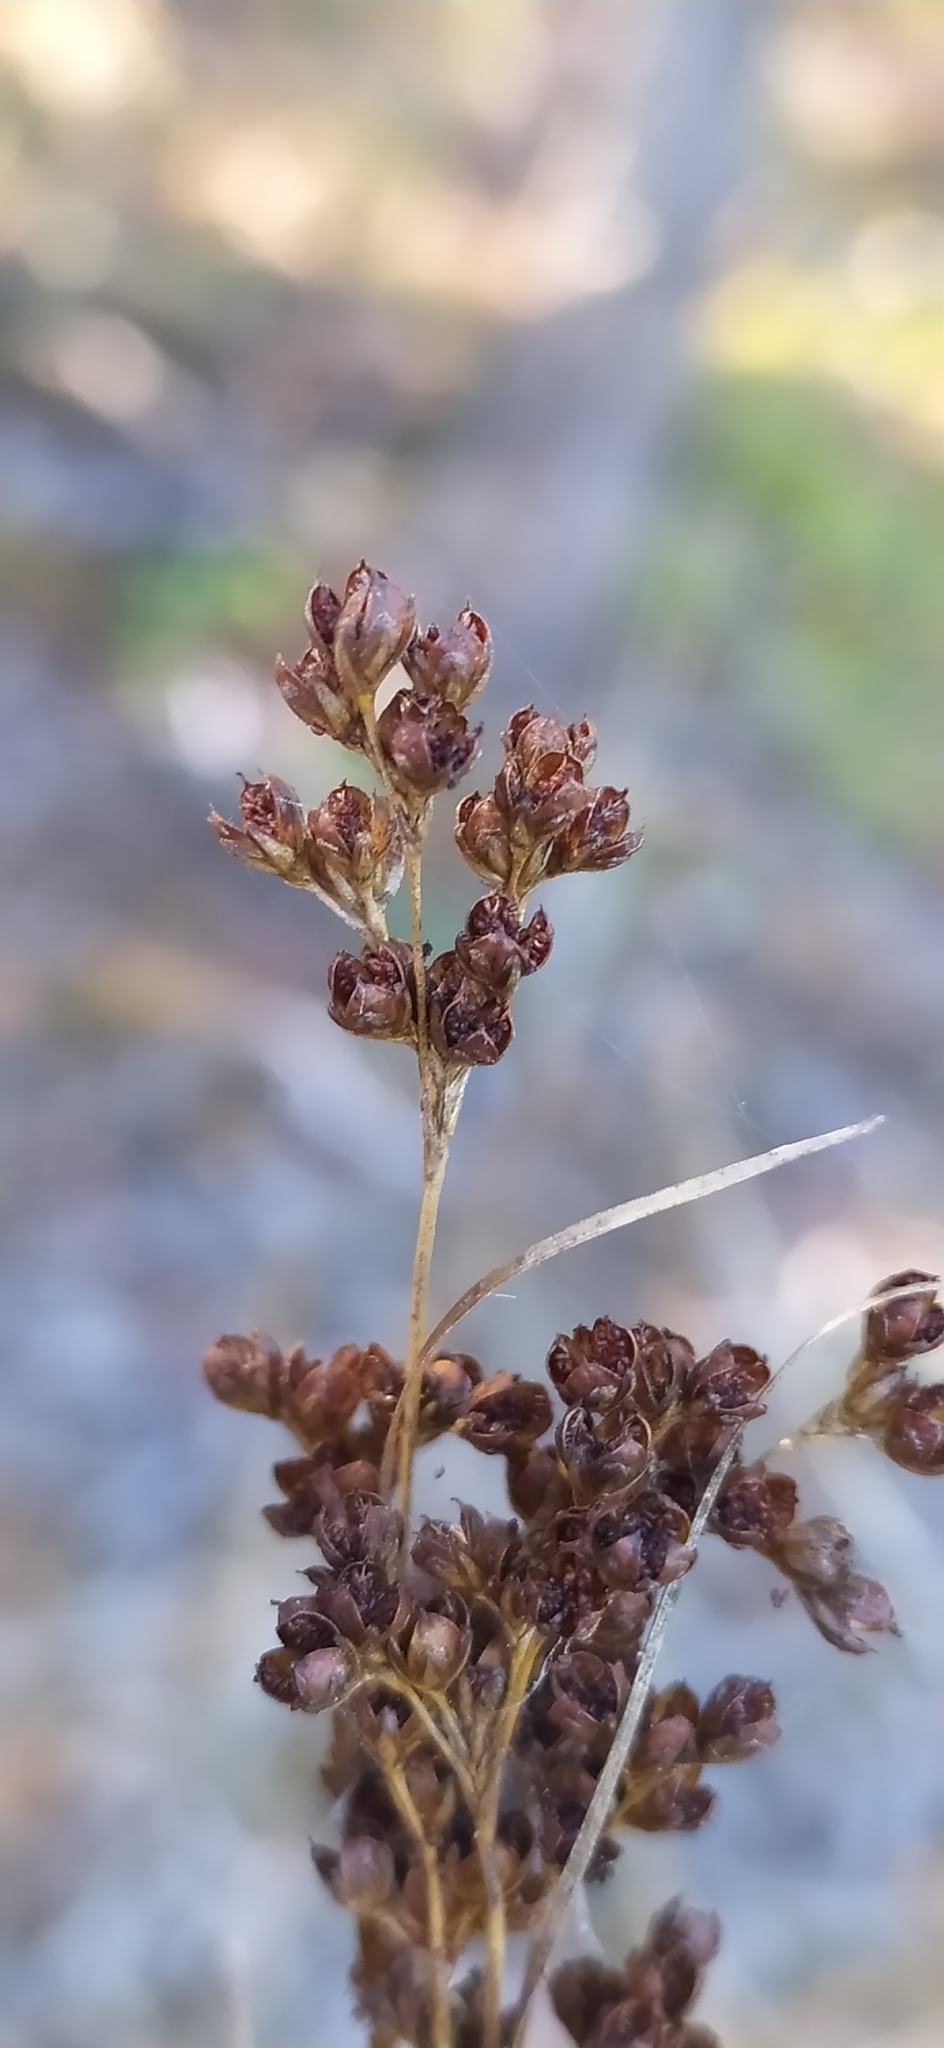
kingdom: Plantae
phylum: Tracheophyta
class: Liliopsida
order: Poales
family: Juncaceae
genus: Juncus
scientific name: Juncus compressus
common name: Round-fruited rush
